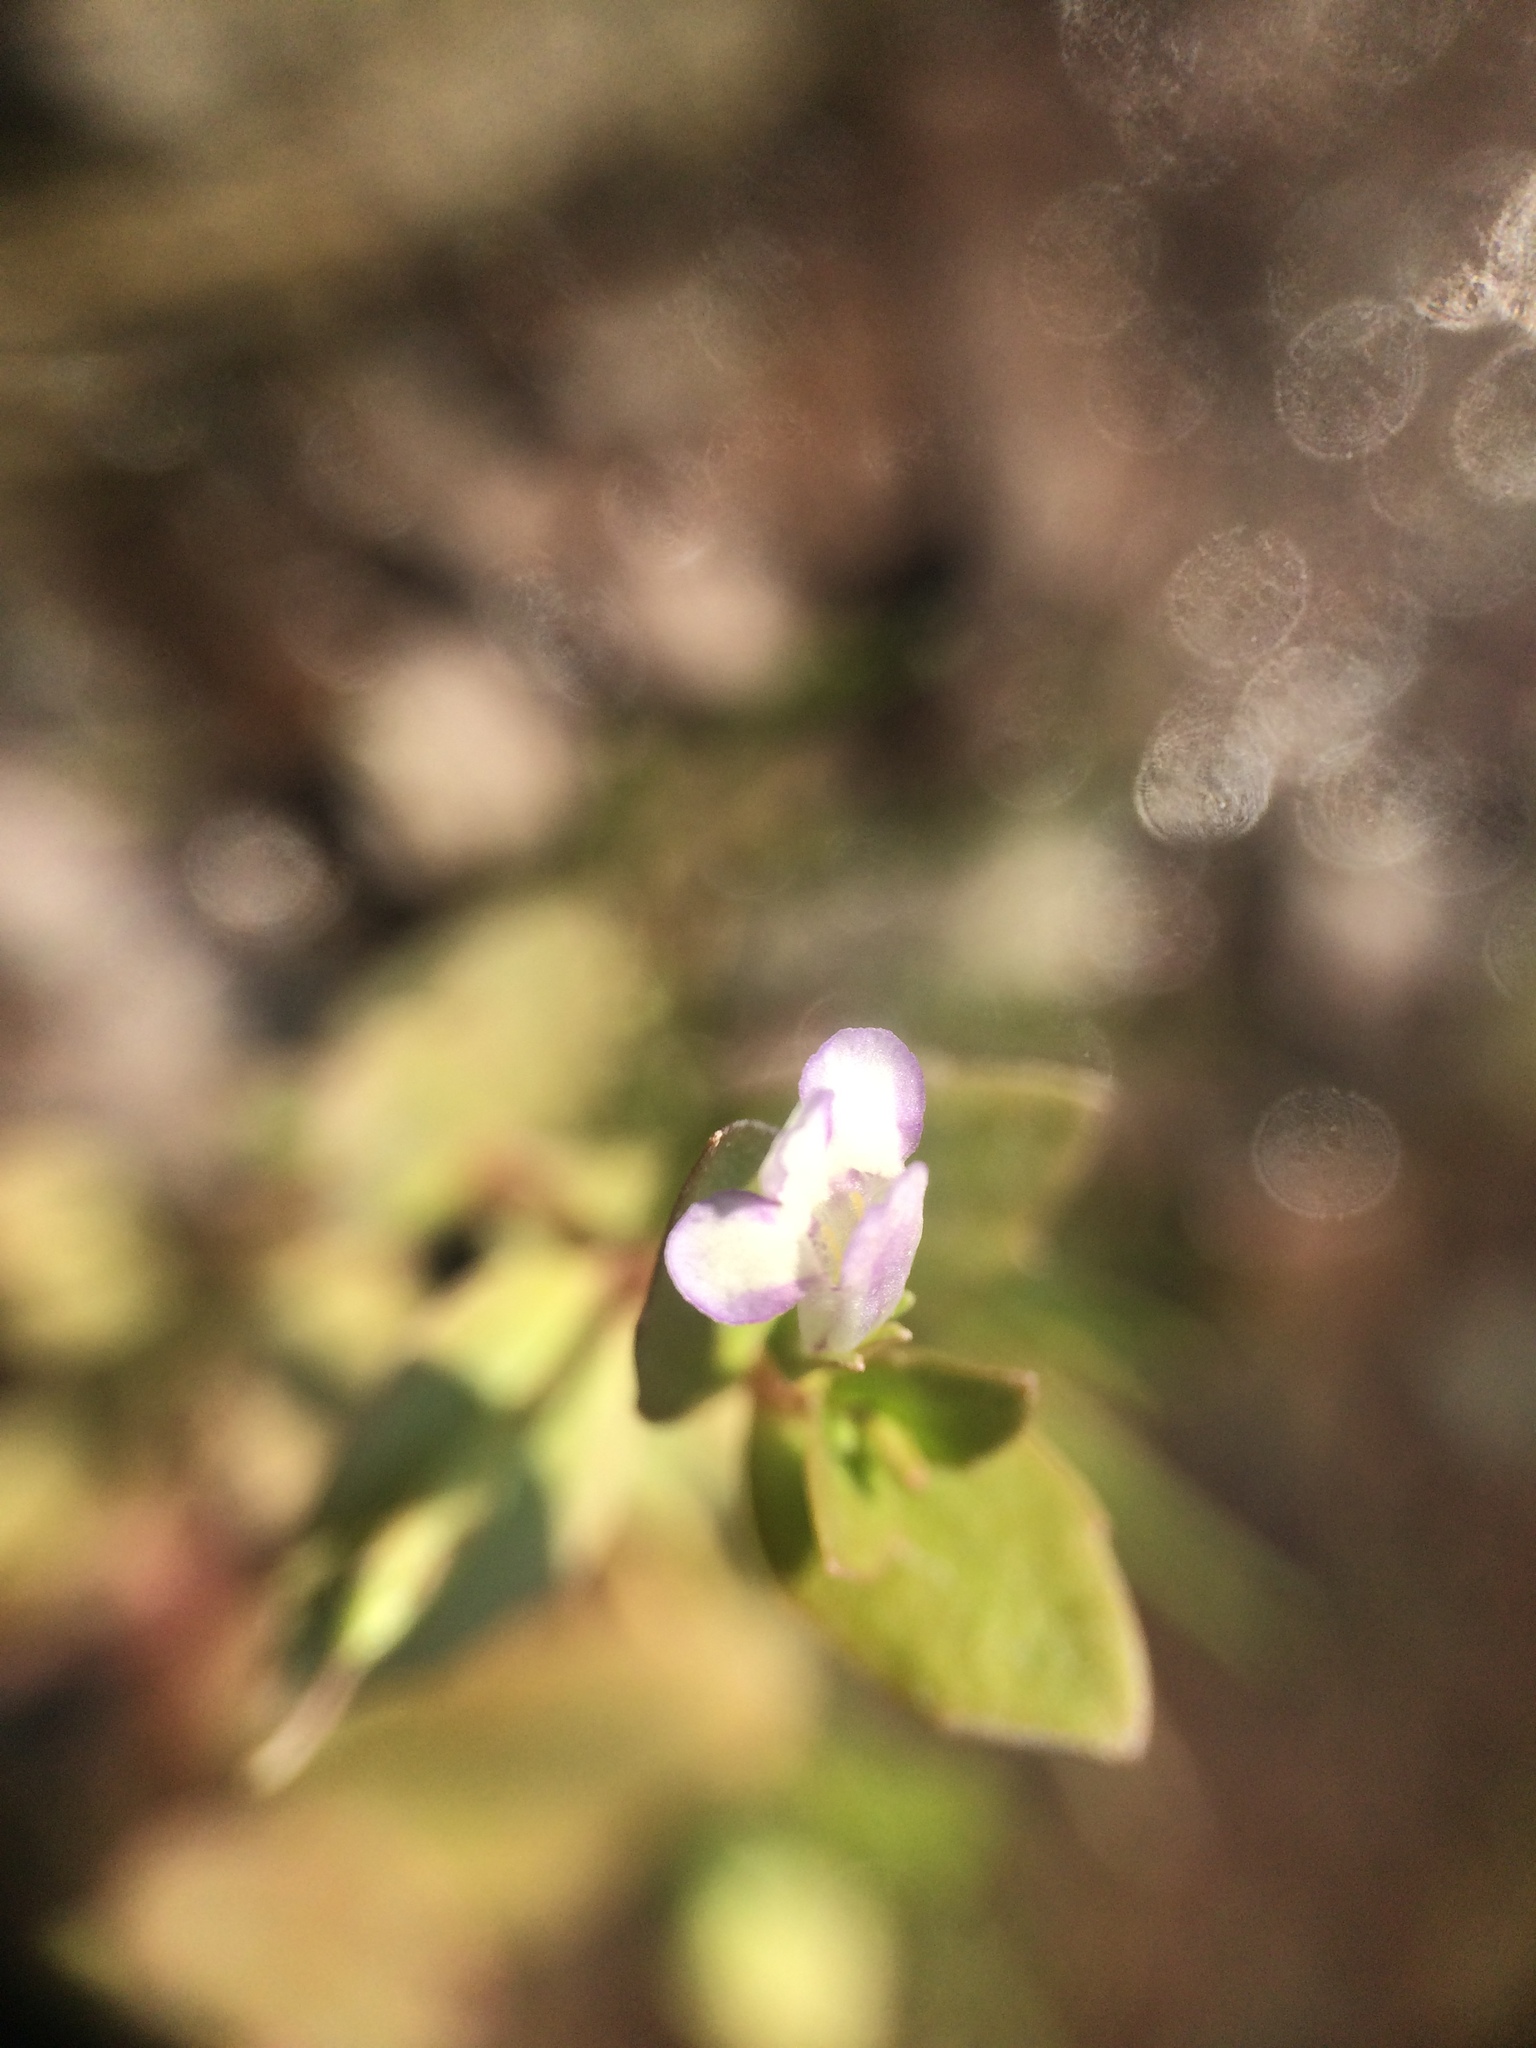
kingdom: Plantae
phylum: Tracheophyta
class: Magnoliopsida
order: Lamiales
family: Linderniaceae
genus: Lindernia
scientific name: Lindernia dubia
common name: Annual false pimpernel
